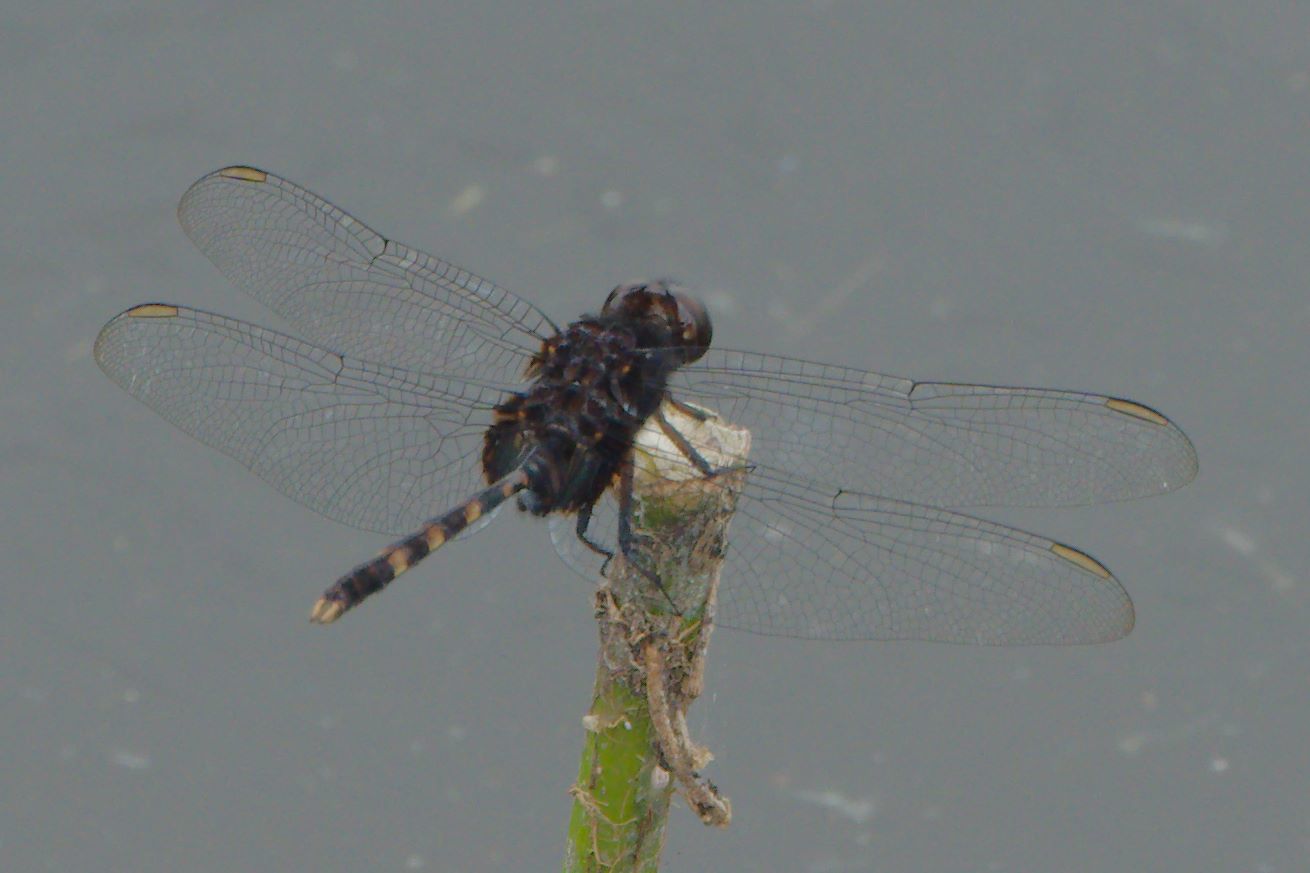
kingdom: Animalia
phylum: Arthropoda
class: Insecta
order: Odonata
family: Libellulidae
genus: Erythemis
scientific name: Erythemis plebeja
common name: Pin-tailed pondhawk
